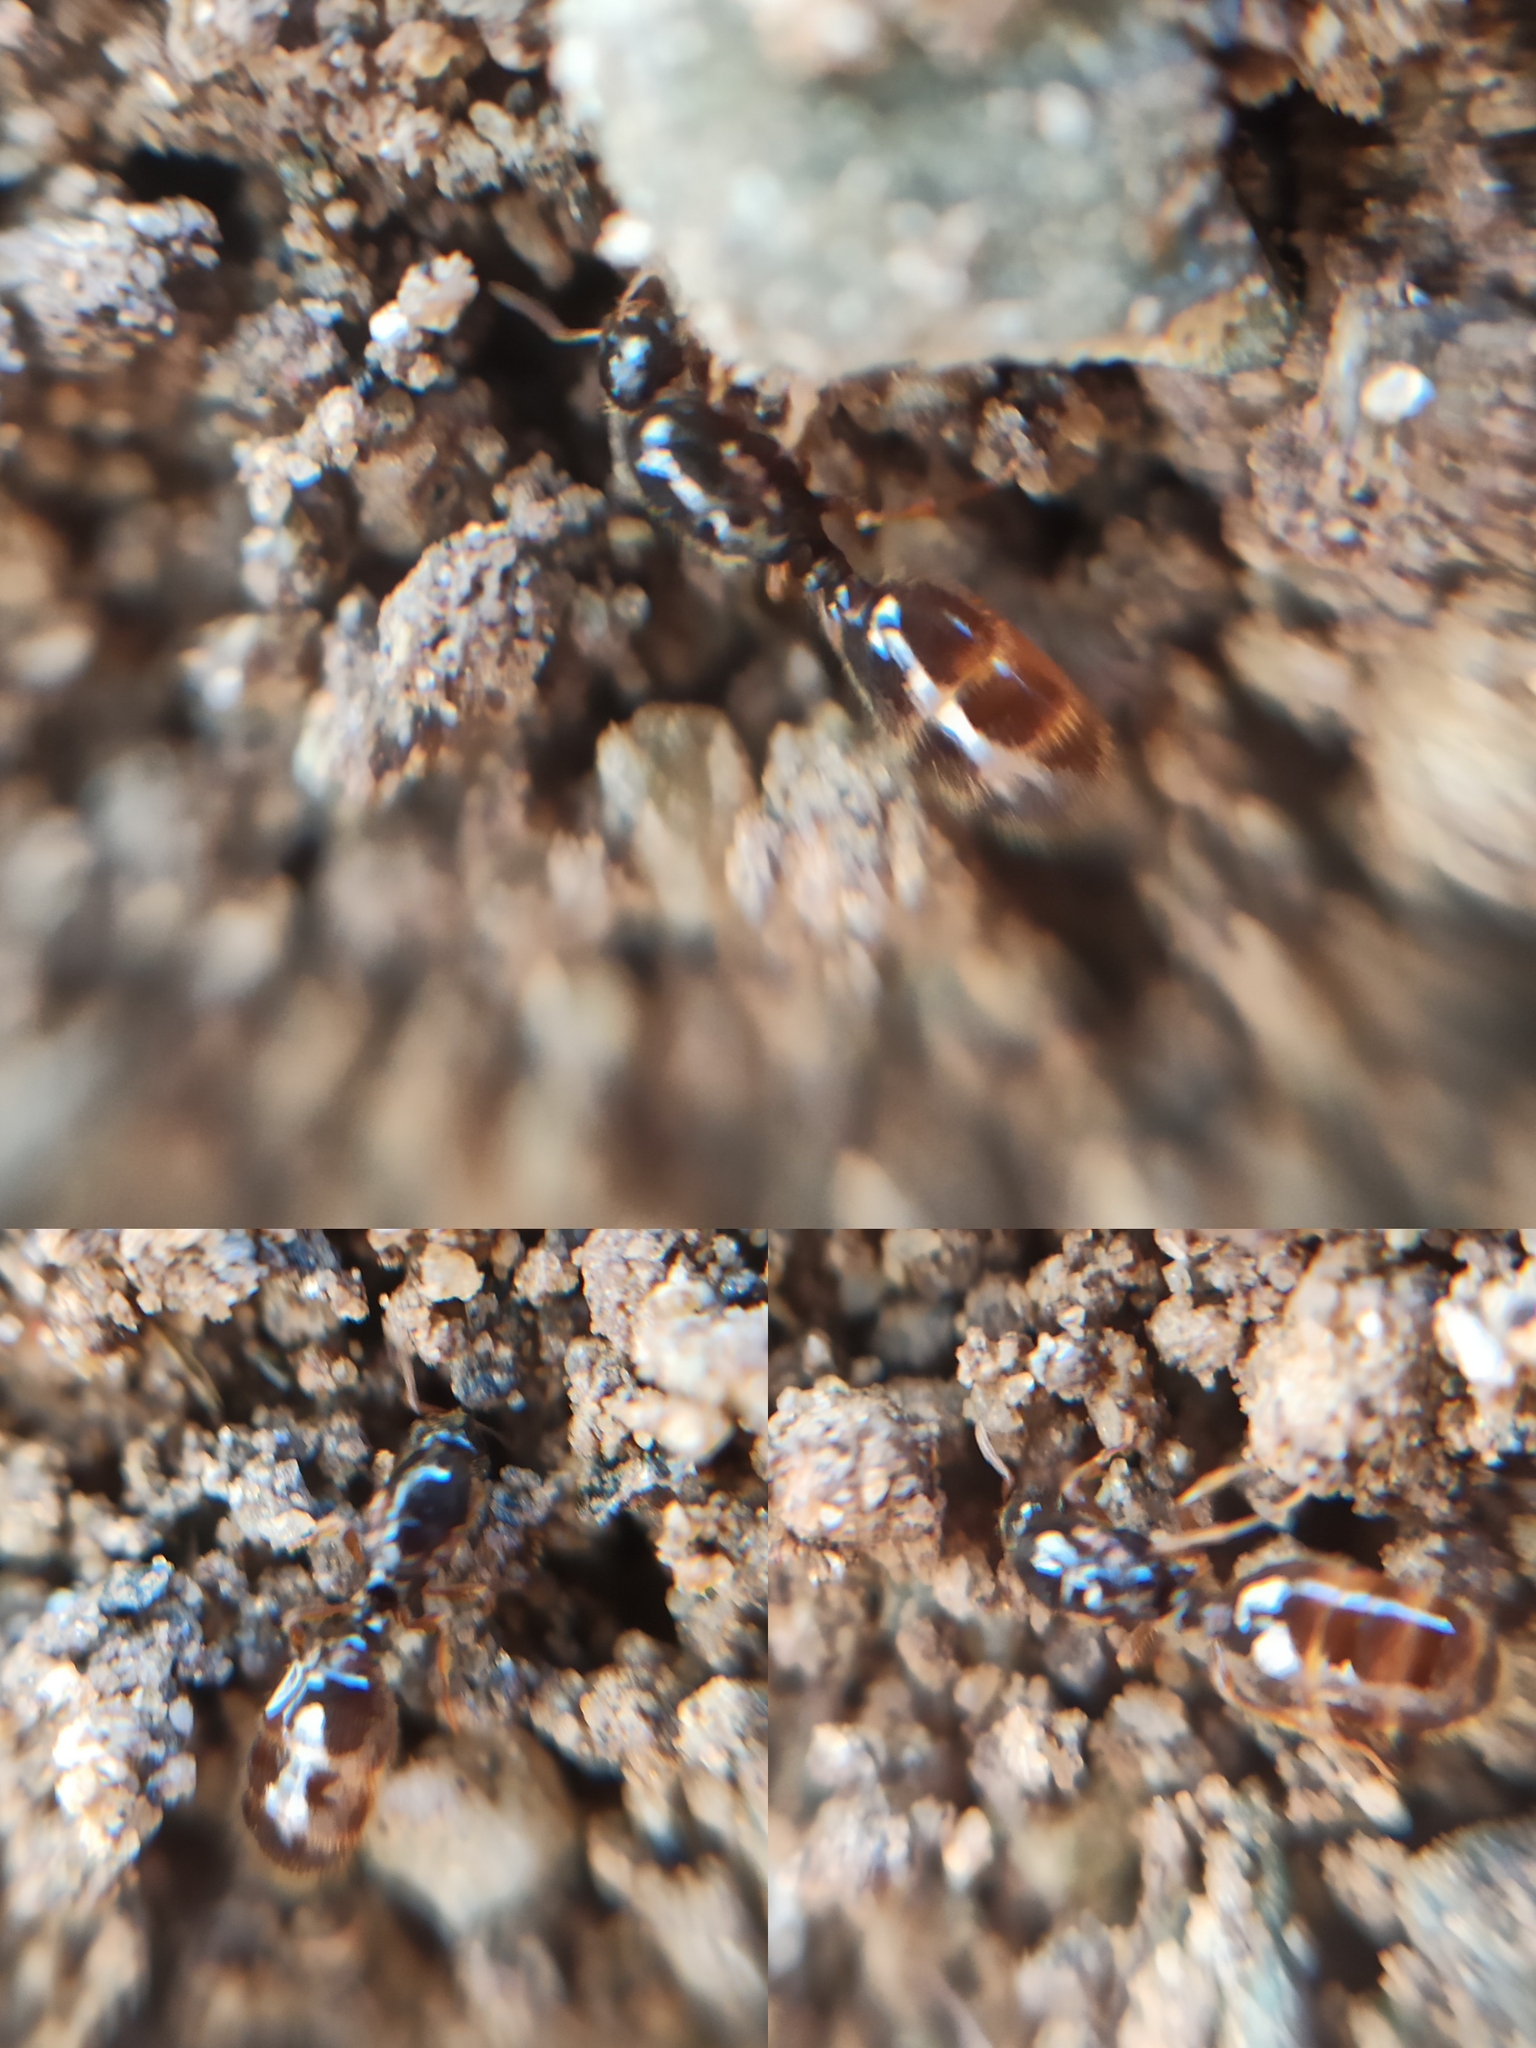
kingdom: Animalia
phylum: Arthropoda
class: Insecta
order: Hymenoptera
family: Formicidae
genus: Solenopsis
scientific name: Solenopsis fugax
